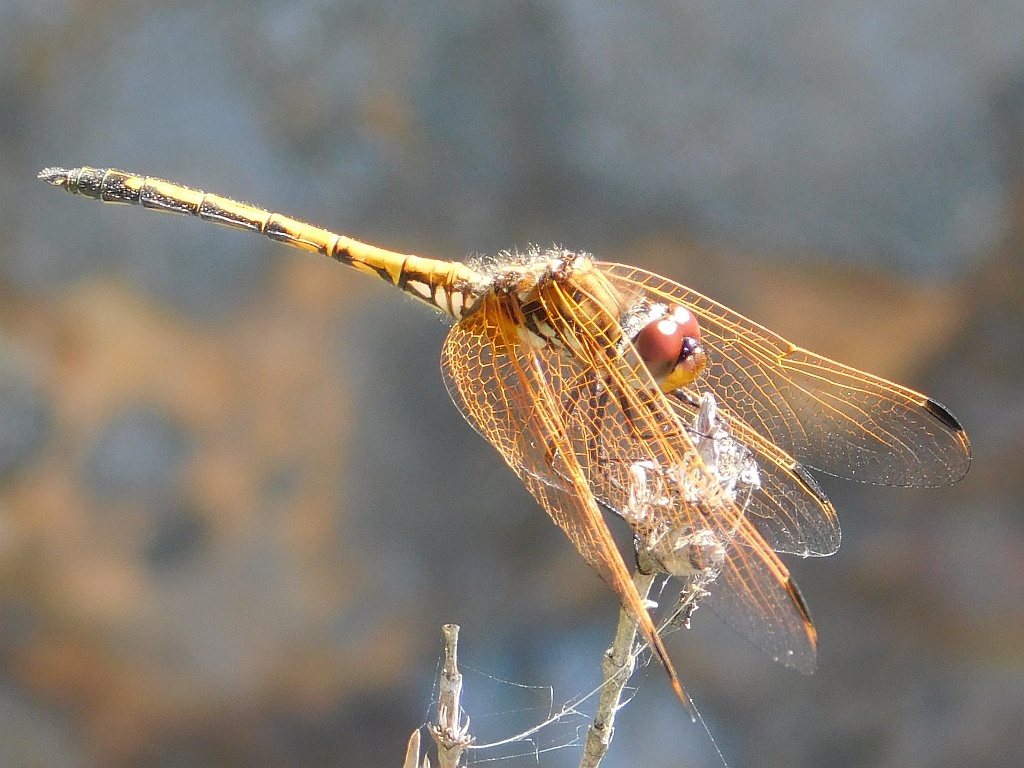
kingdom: Animalia
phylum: Arthropoda
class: Insecta
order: Odonata
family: Libellulidae
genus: Trithemis
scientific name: Trithemis arteriosa
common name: Red-veined dropwing
